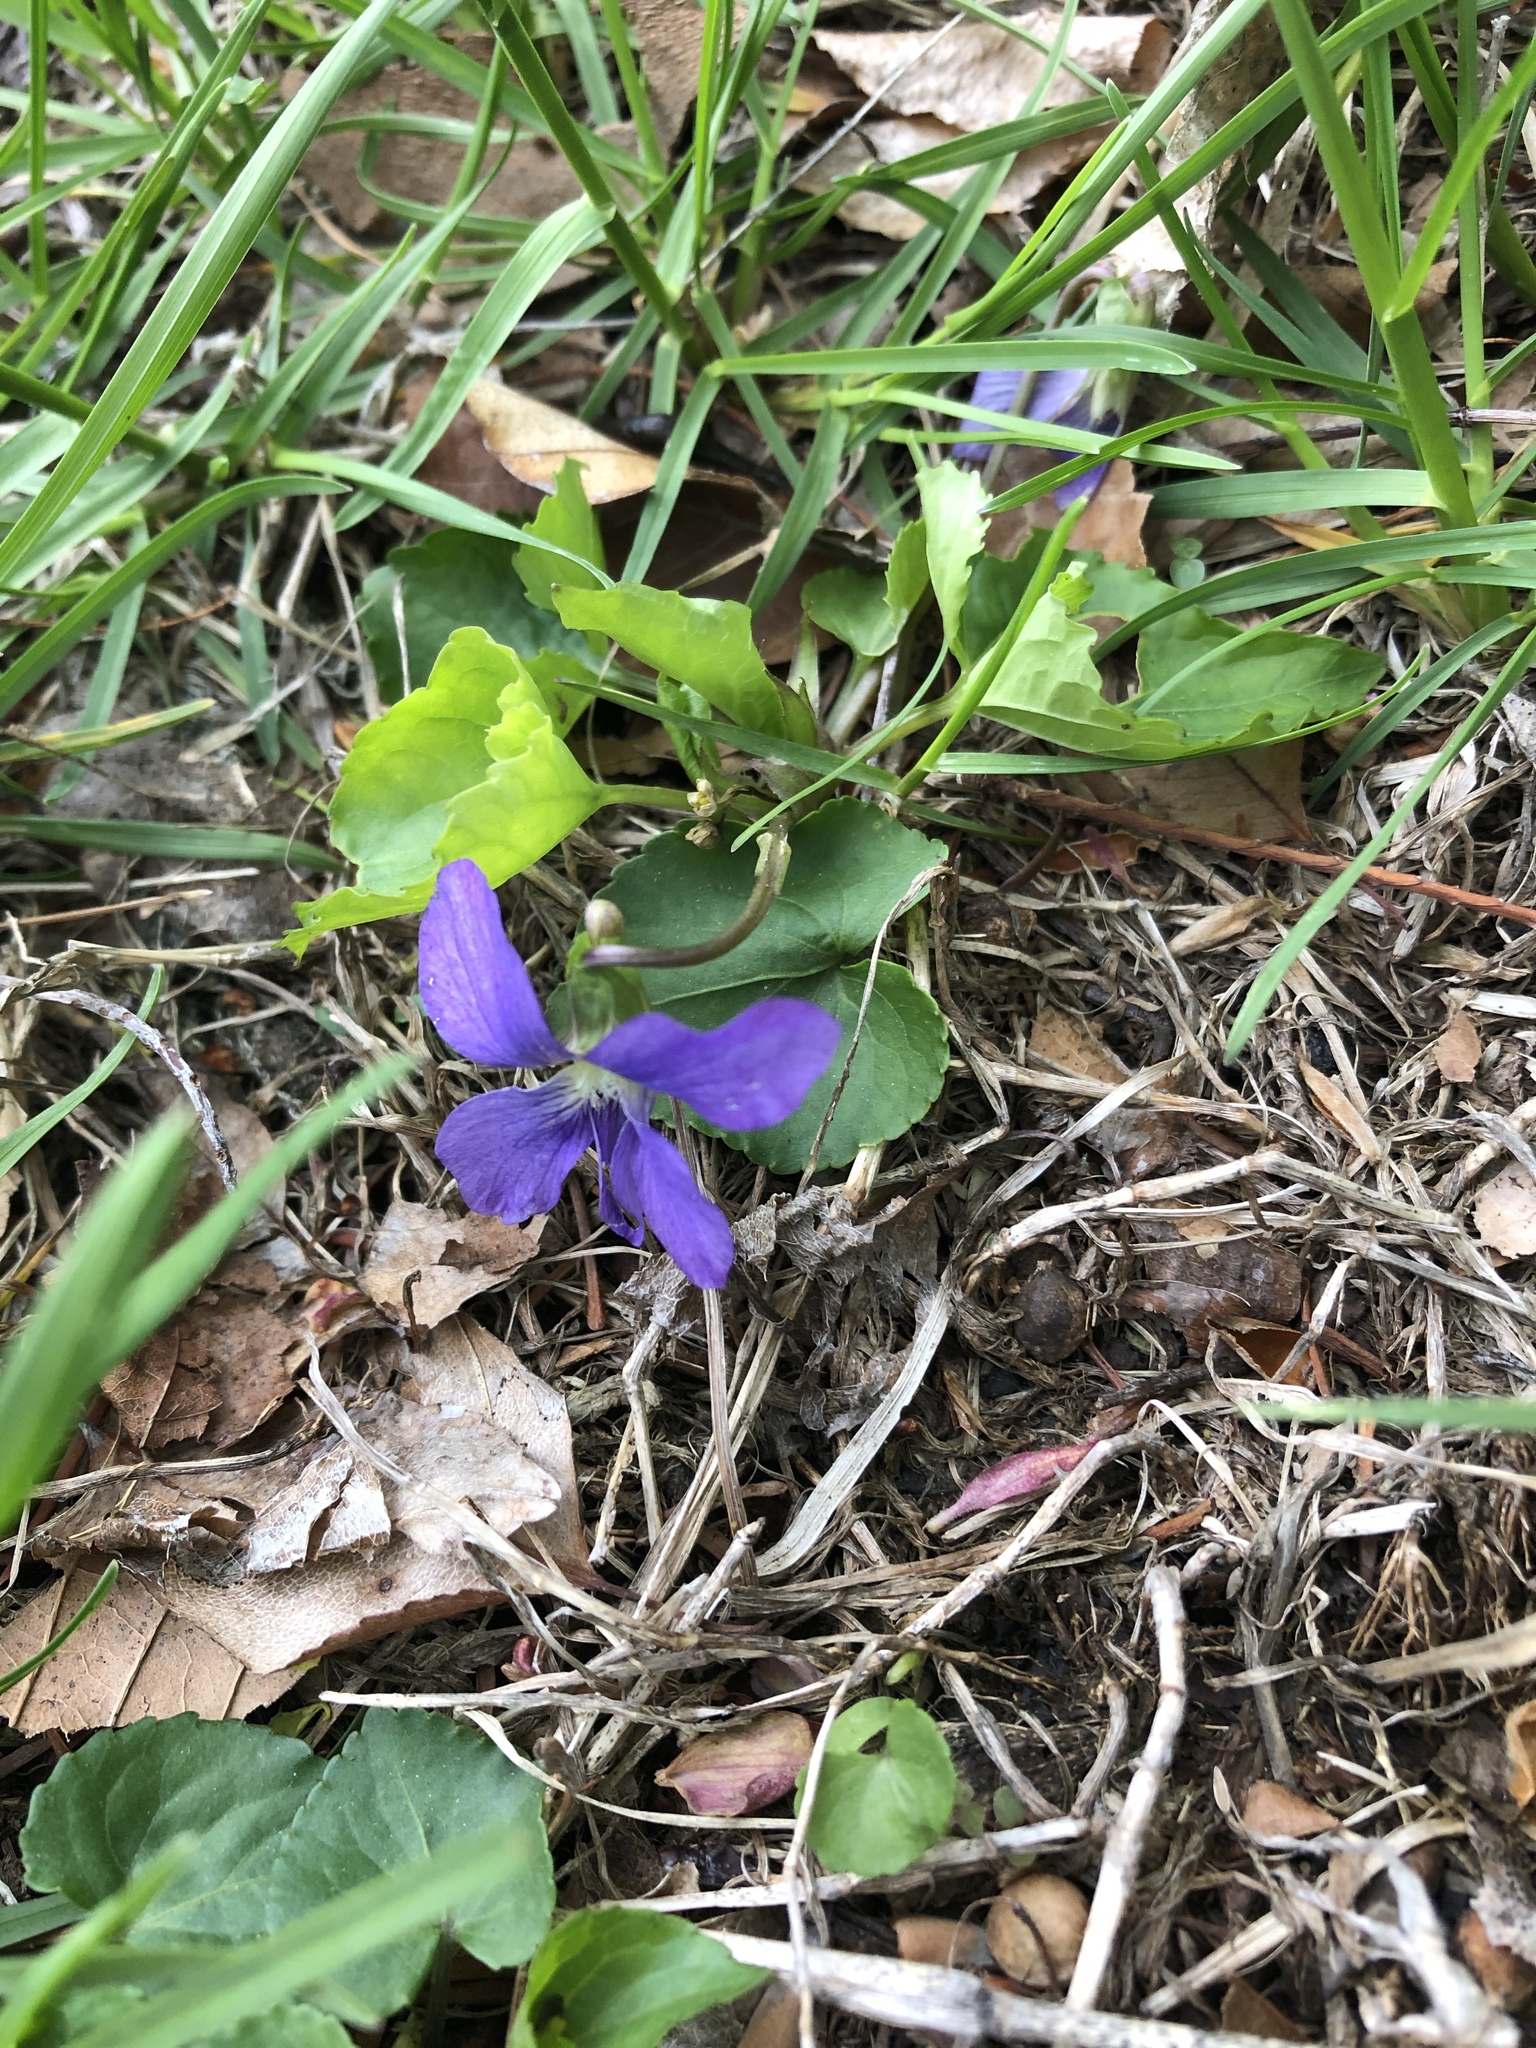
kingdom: Plantae
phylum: Tracheophyta
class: Magnoliopsida
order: Malpighiales
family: Violaceae
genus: Viola
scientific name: Viola sororia
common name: Dooryard violet
